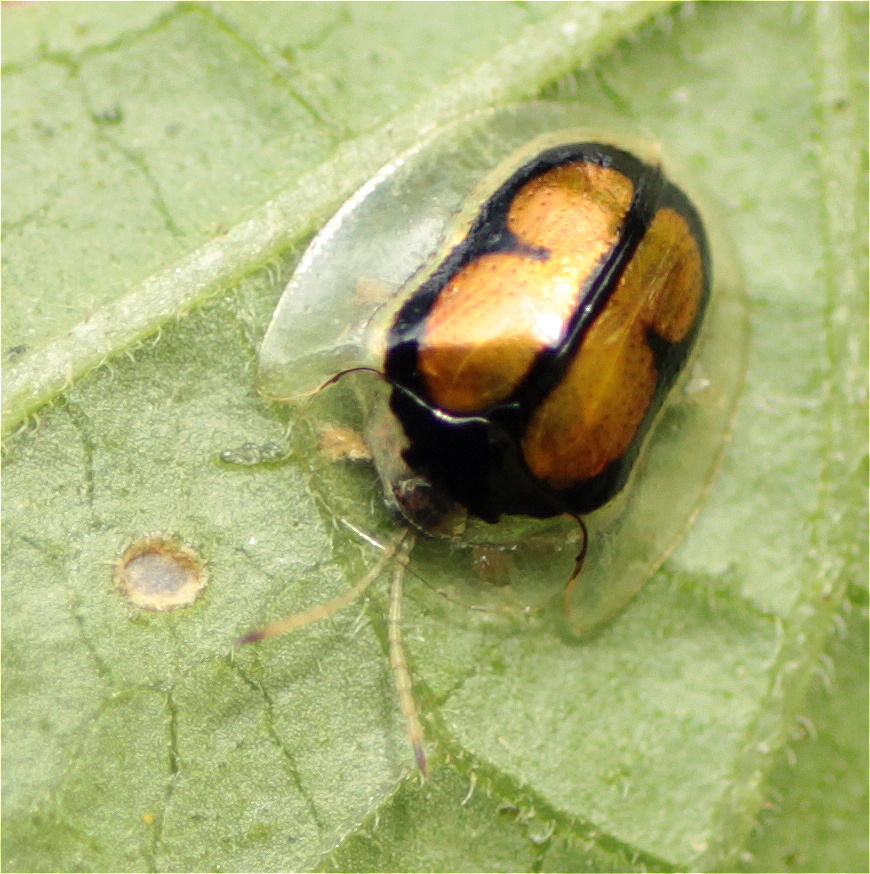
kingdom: Animalia
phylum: Arthropoda
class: Insecta
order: Coleoptera
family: Chrysomelidae
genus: Plagiometriona
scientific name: Plagiometriona pehlkei
